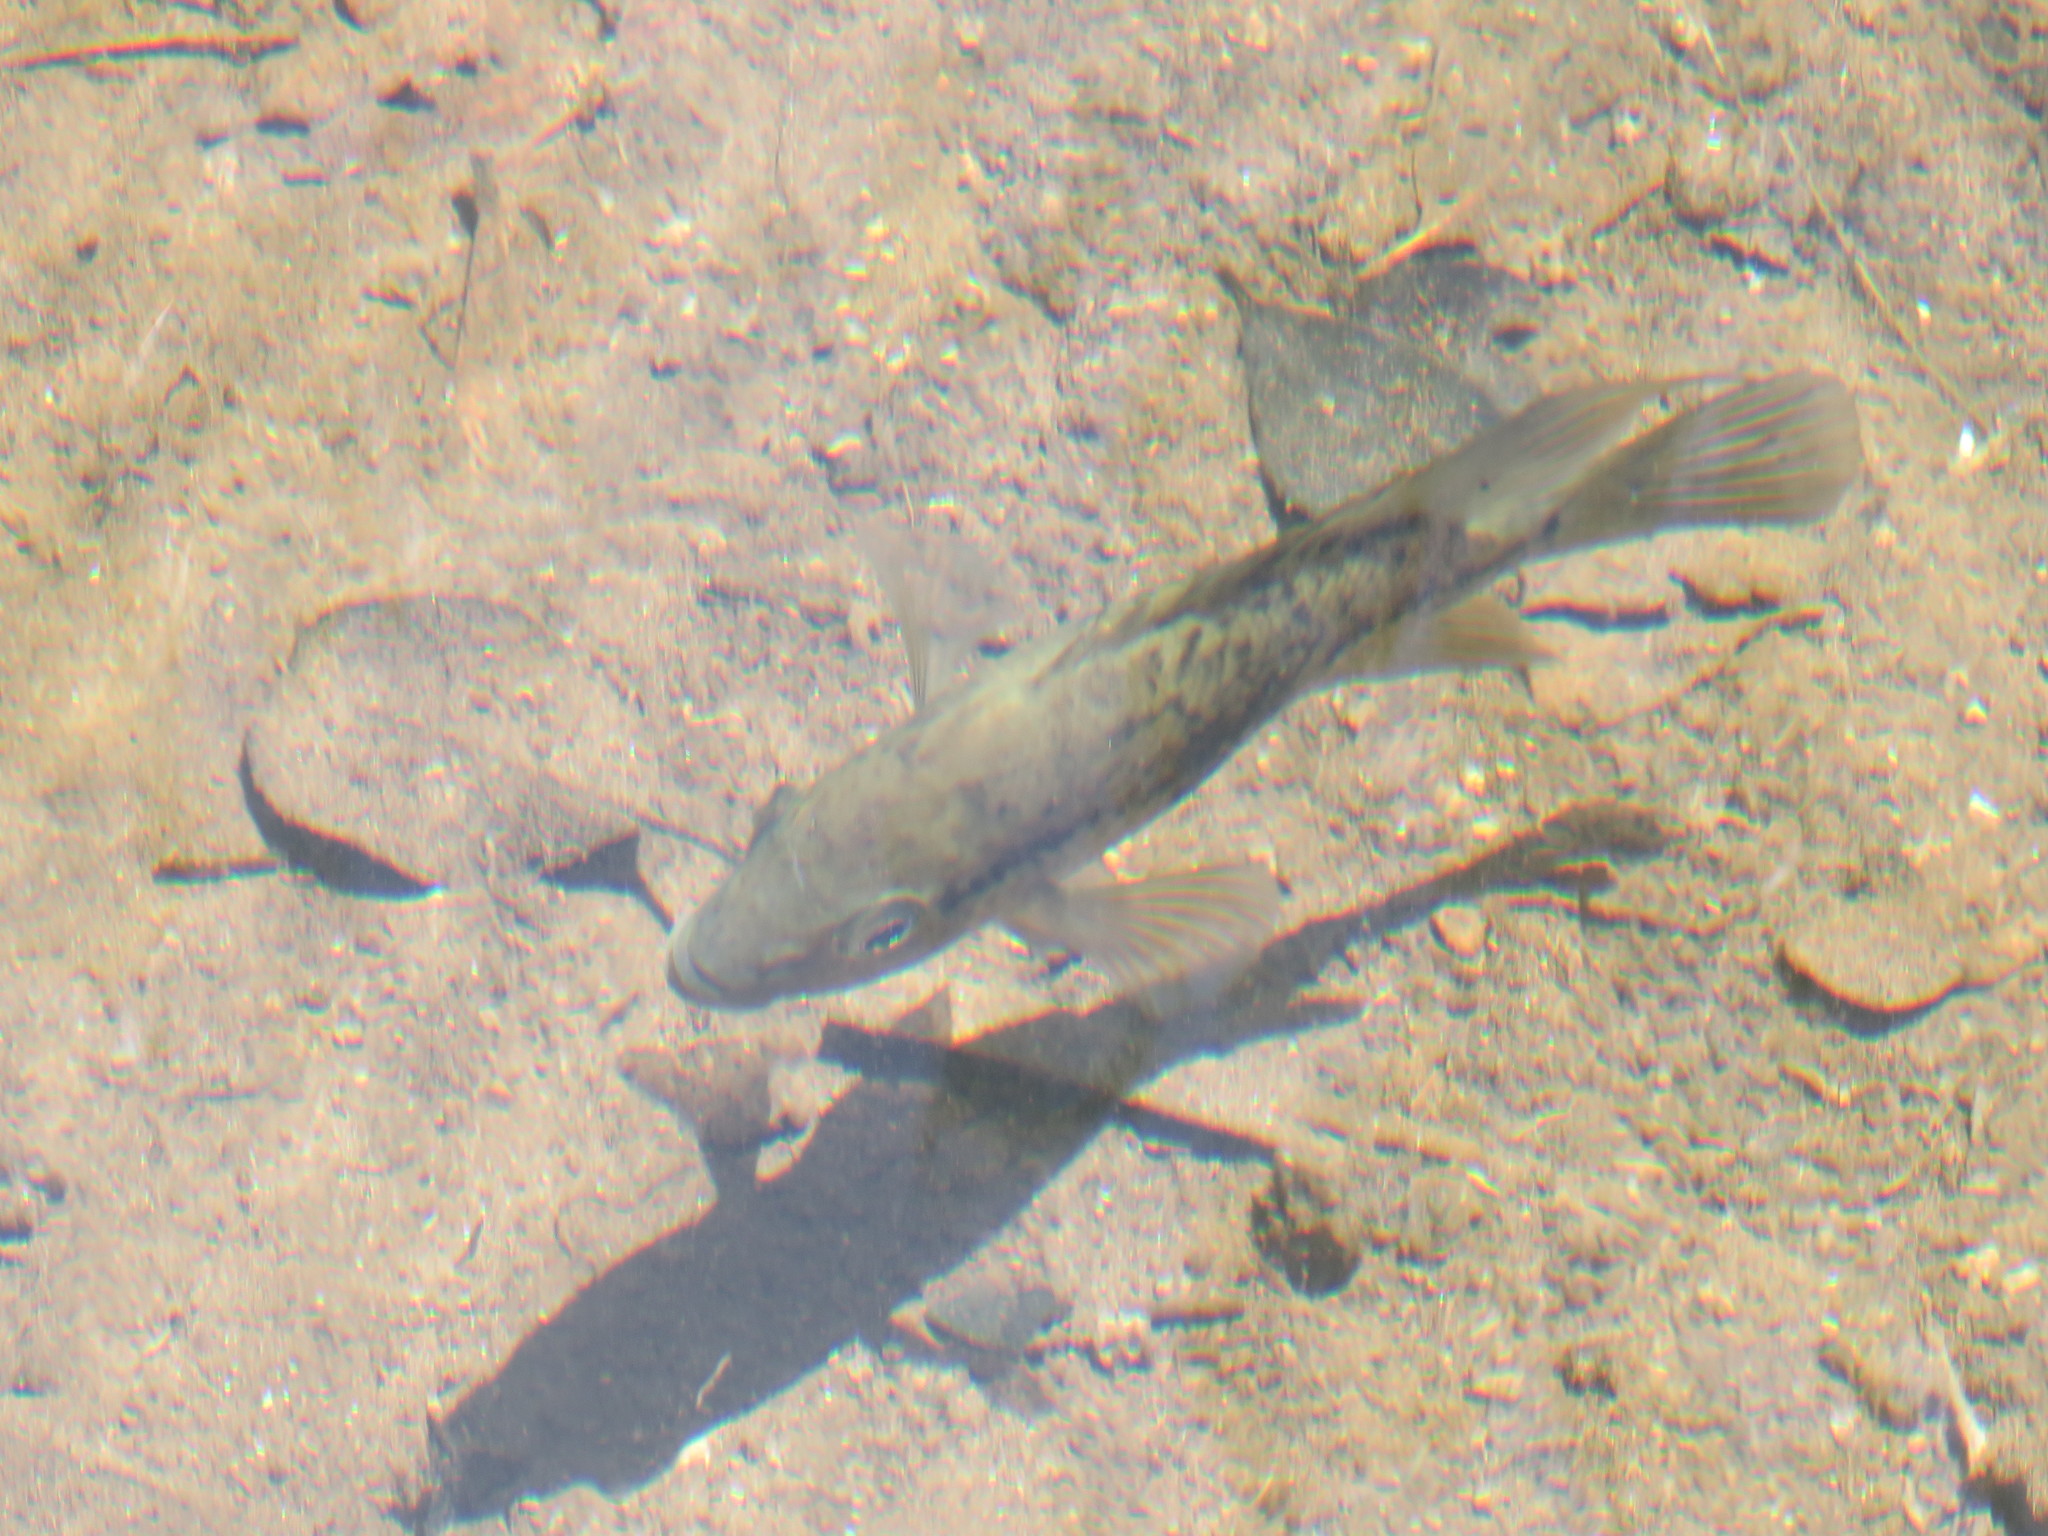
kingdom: Animalia
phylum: Chordata
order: Perciformes
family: Cichlidae
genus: Nandopsis
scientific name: Nandopsis haitiensis
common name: Haitian cichlid
